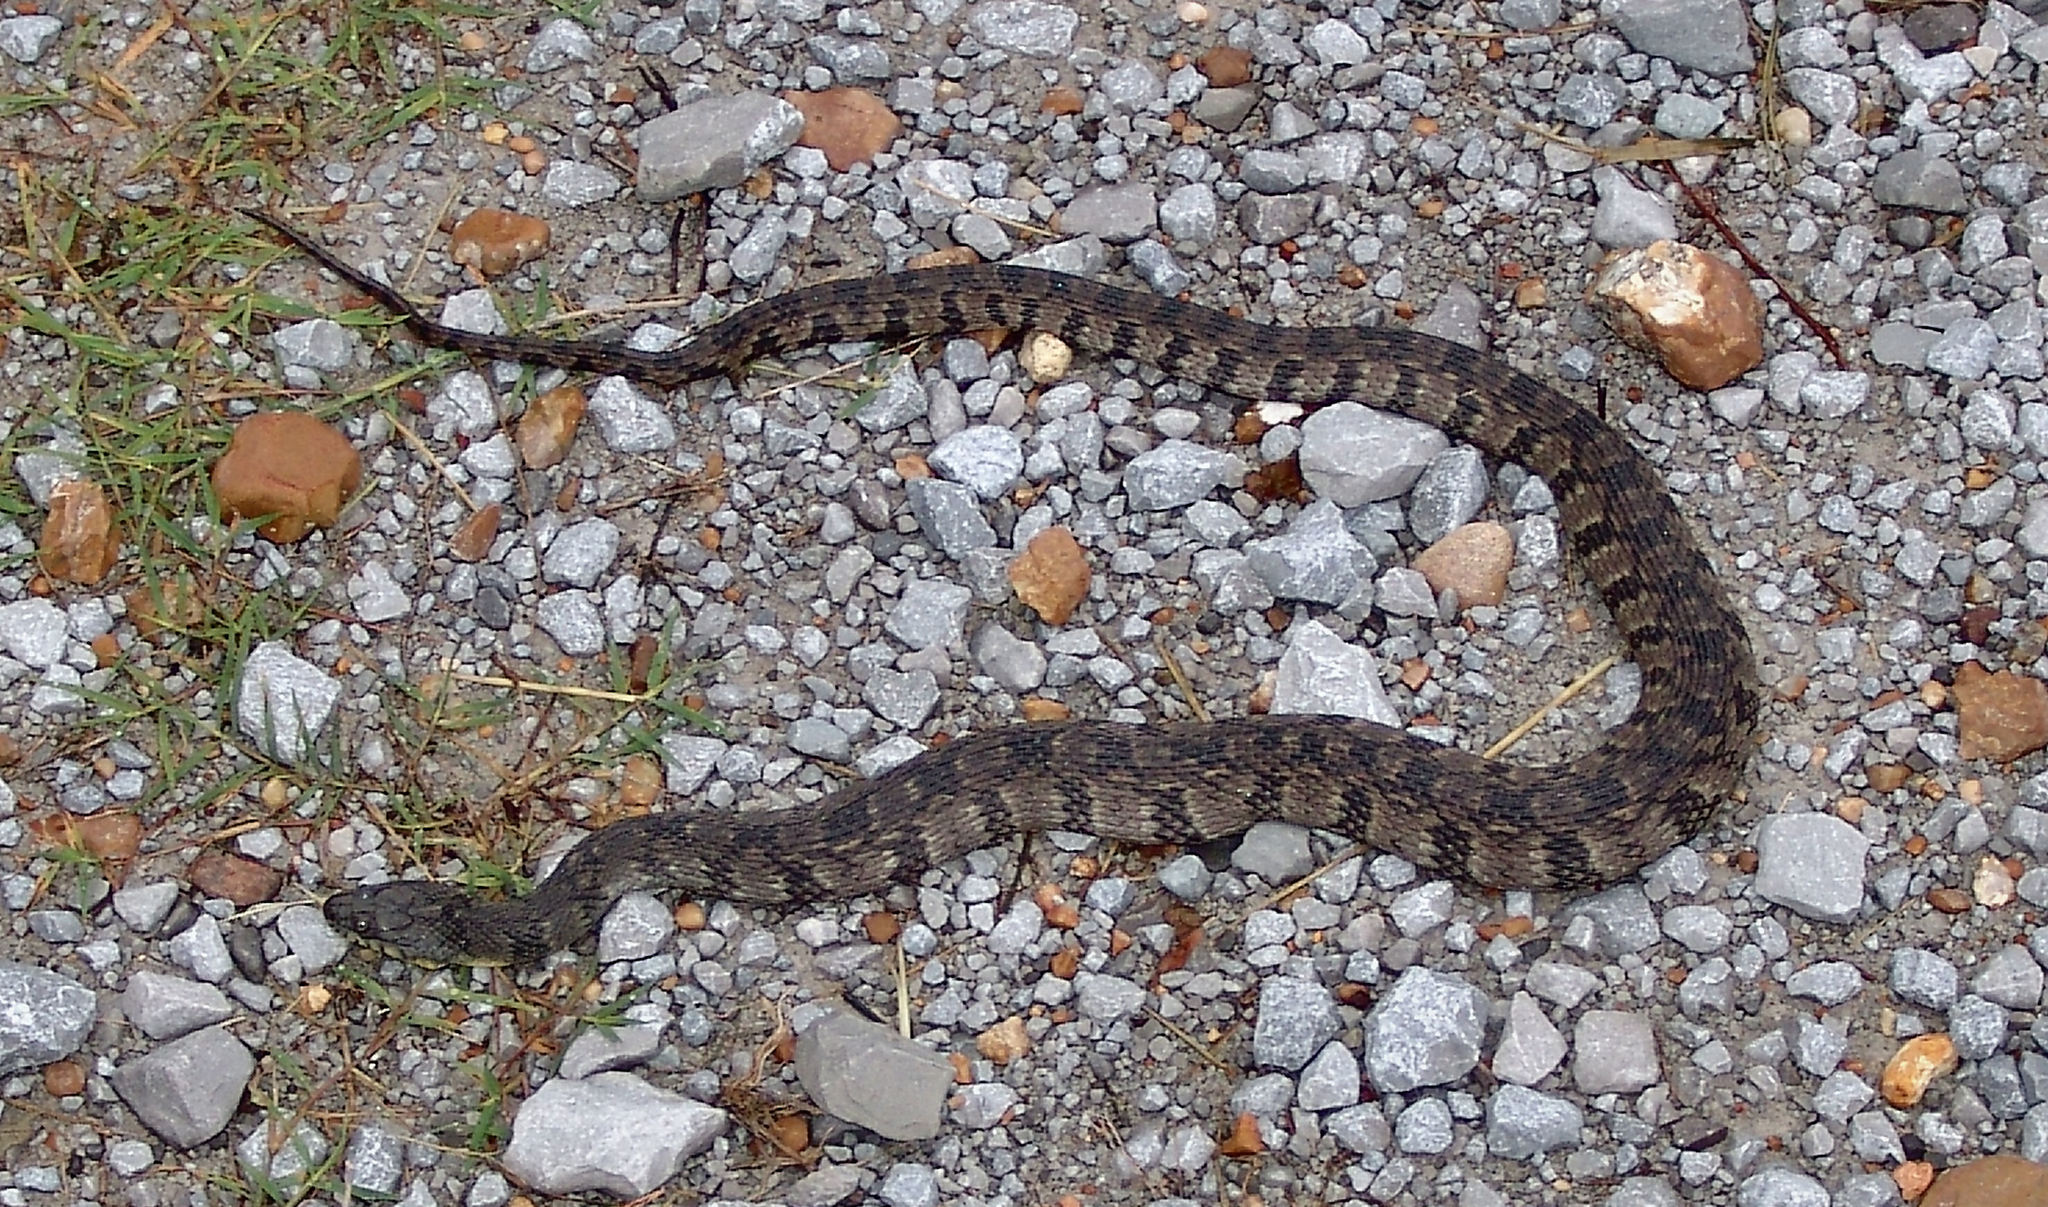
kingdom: Animalia
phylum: Chordata
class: Squamata
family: Colubridae
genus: Nerodia
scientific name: Nerodia rhombifer
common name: Diamondback water snake
